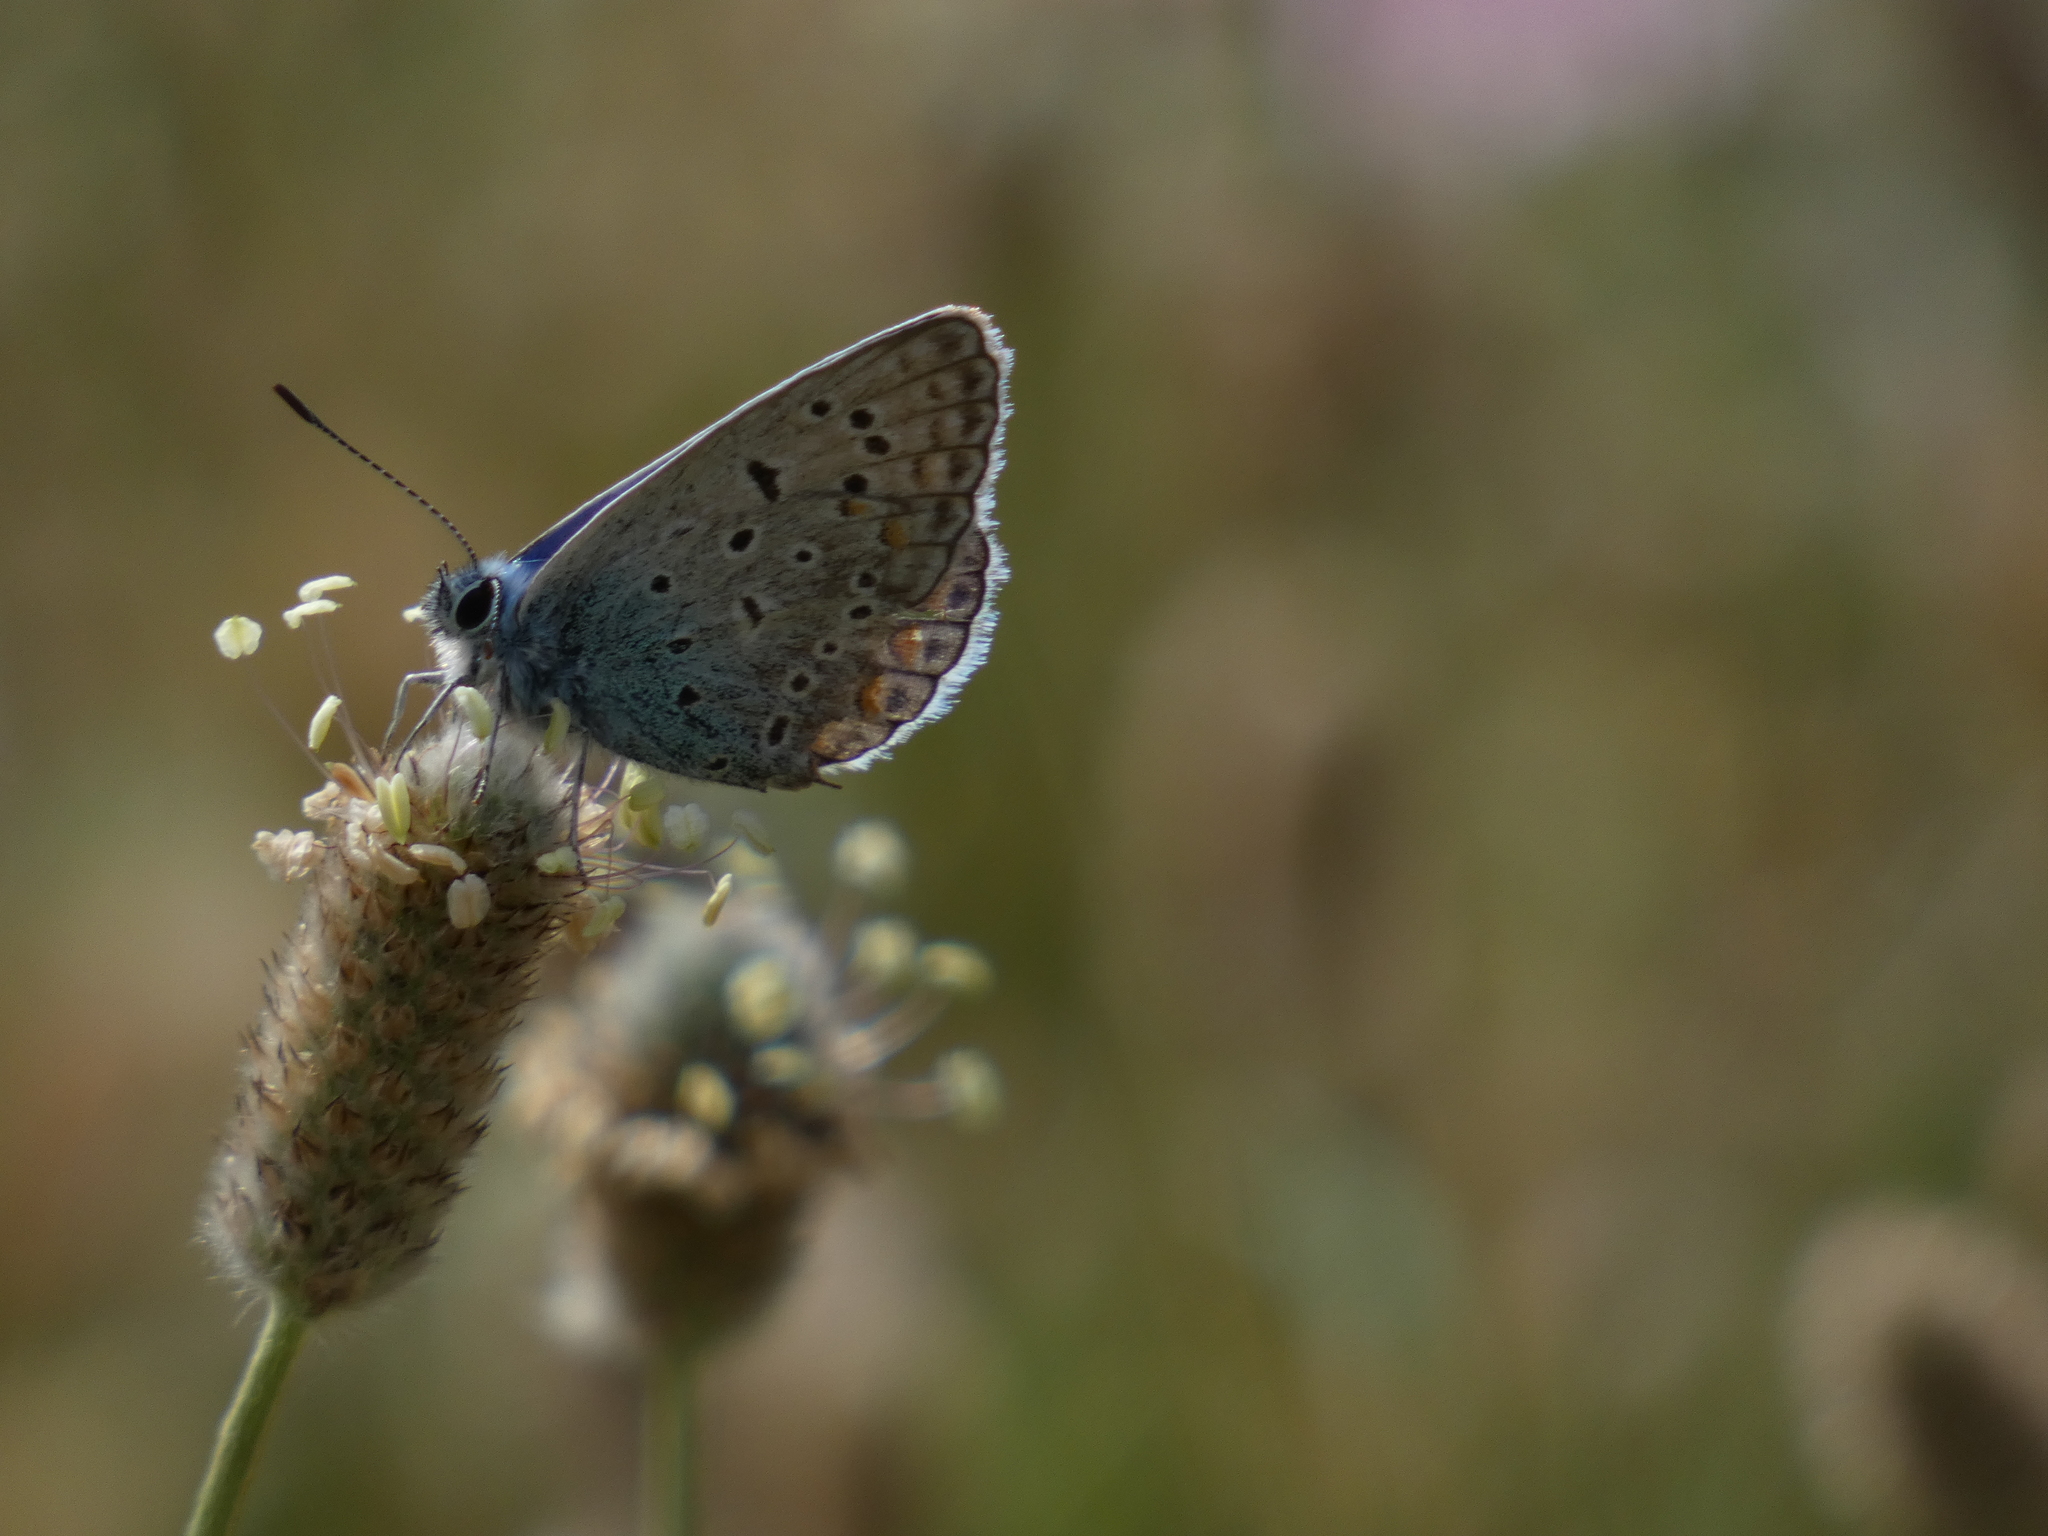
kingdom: Animalia
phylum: Arthropoda
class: Insecta
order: Lepidoptera
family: Lycaenidae
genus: Polyommatus
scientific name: Polyommatus icarus
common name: Common blue
